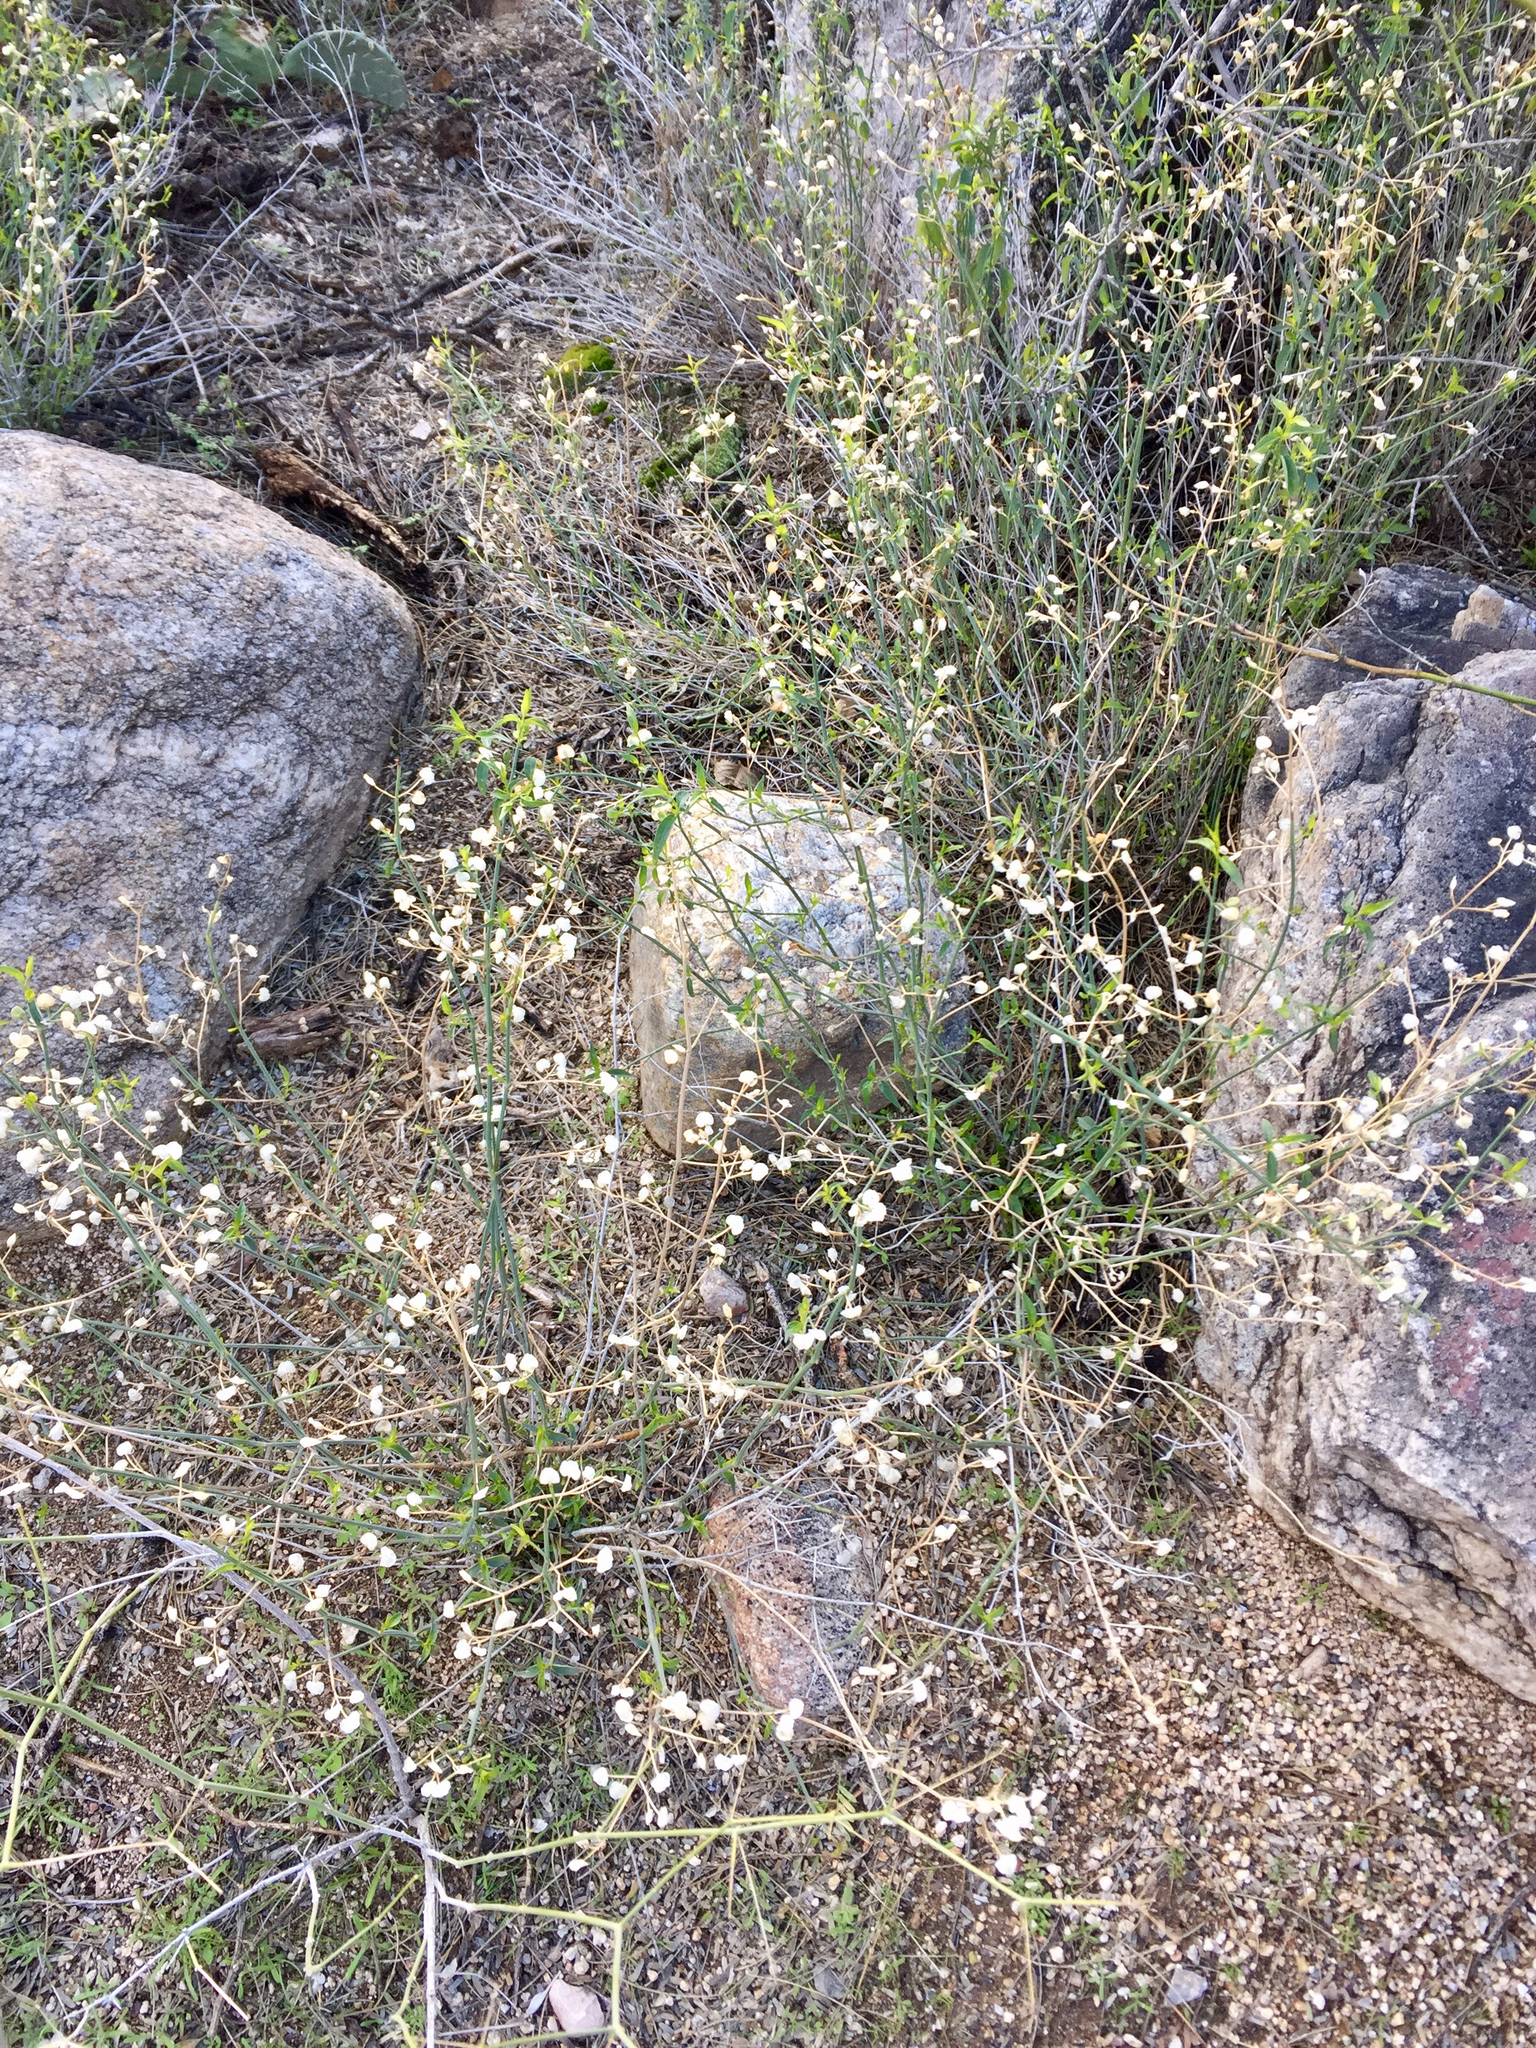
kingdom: Plantae
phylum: Tracheophyta
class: Magnoliopsida
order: Lamiales
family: Acanthaceae
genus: Dicliptera
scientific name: Dicliptera resupinata
